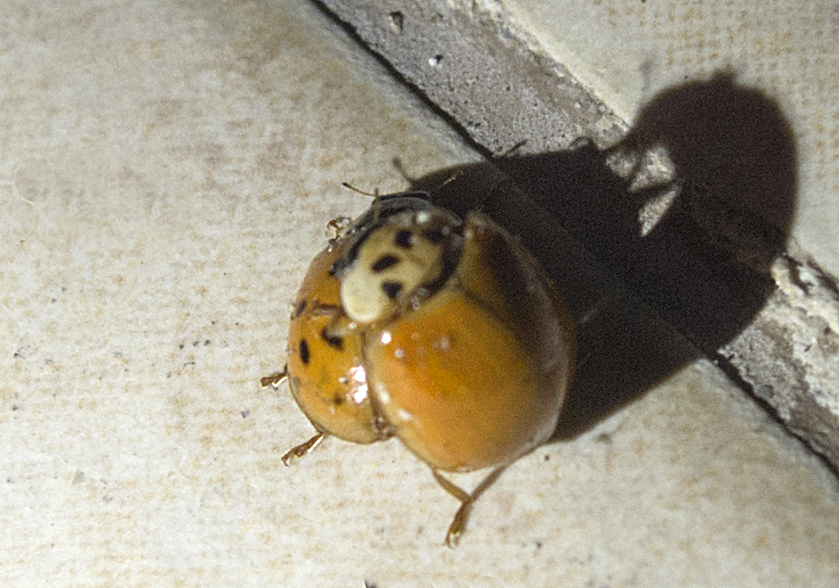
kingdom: Animalia
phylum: Arthropoda
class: Insecta
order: Coleoptera
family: Coccinellidae
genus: Harmonia
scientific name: Harmonia axyridis
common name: Harlequin ladybird
